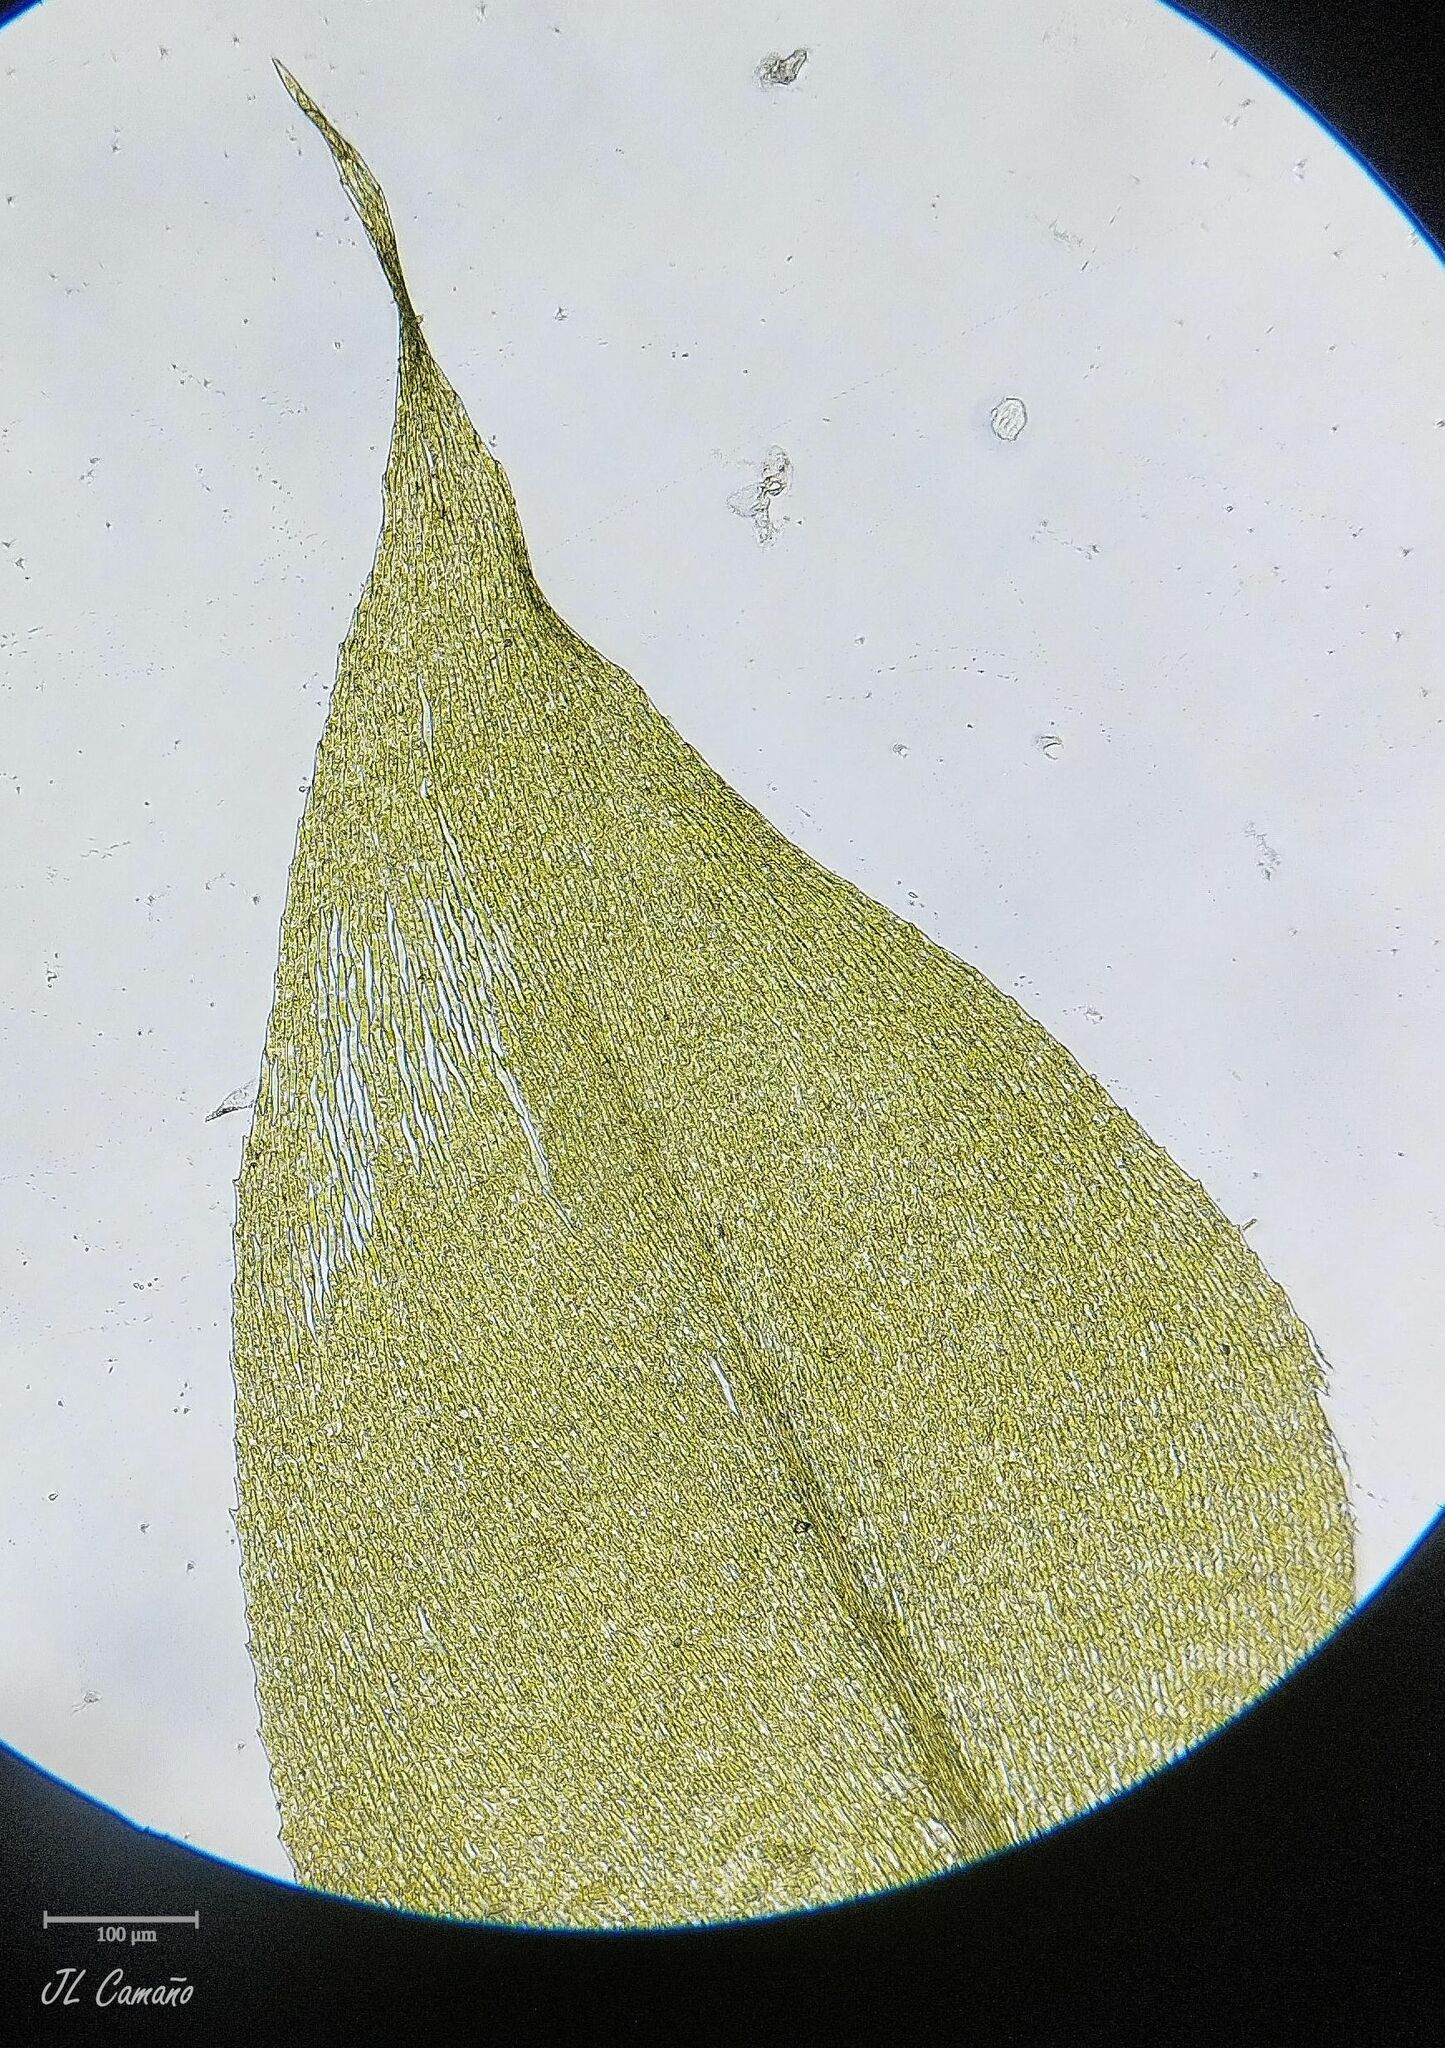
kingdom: Plantae
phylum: Bryophyta
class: Bryopsida
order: Hypnales
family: Brachytheciaceae
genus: Rhynchostegium
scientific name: Rhynchostegium megapolitanum
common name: Megapolitan feather-moss
